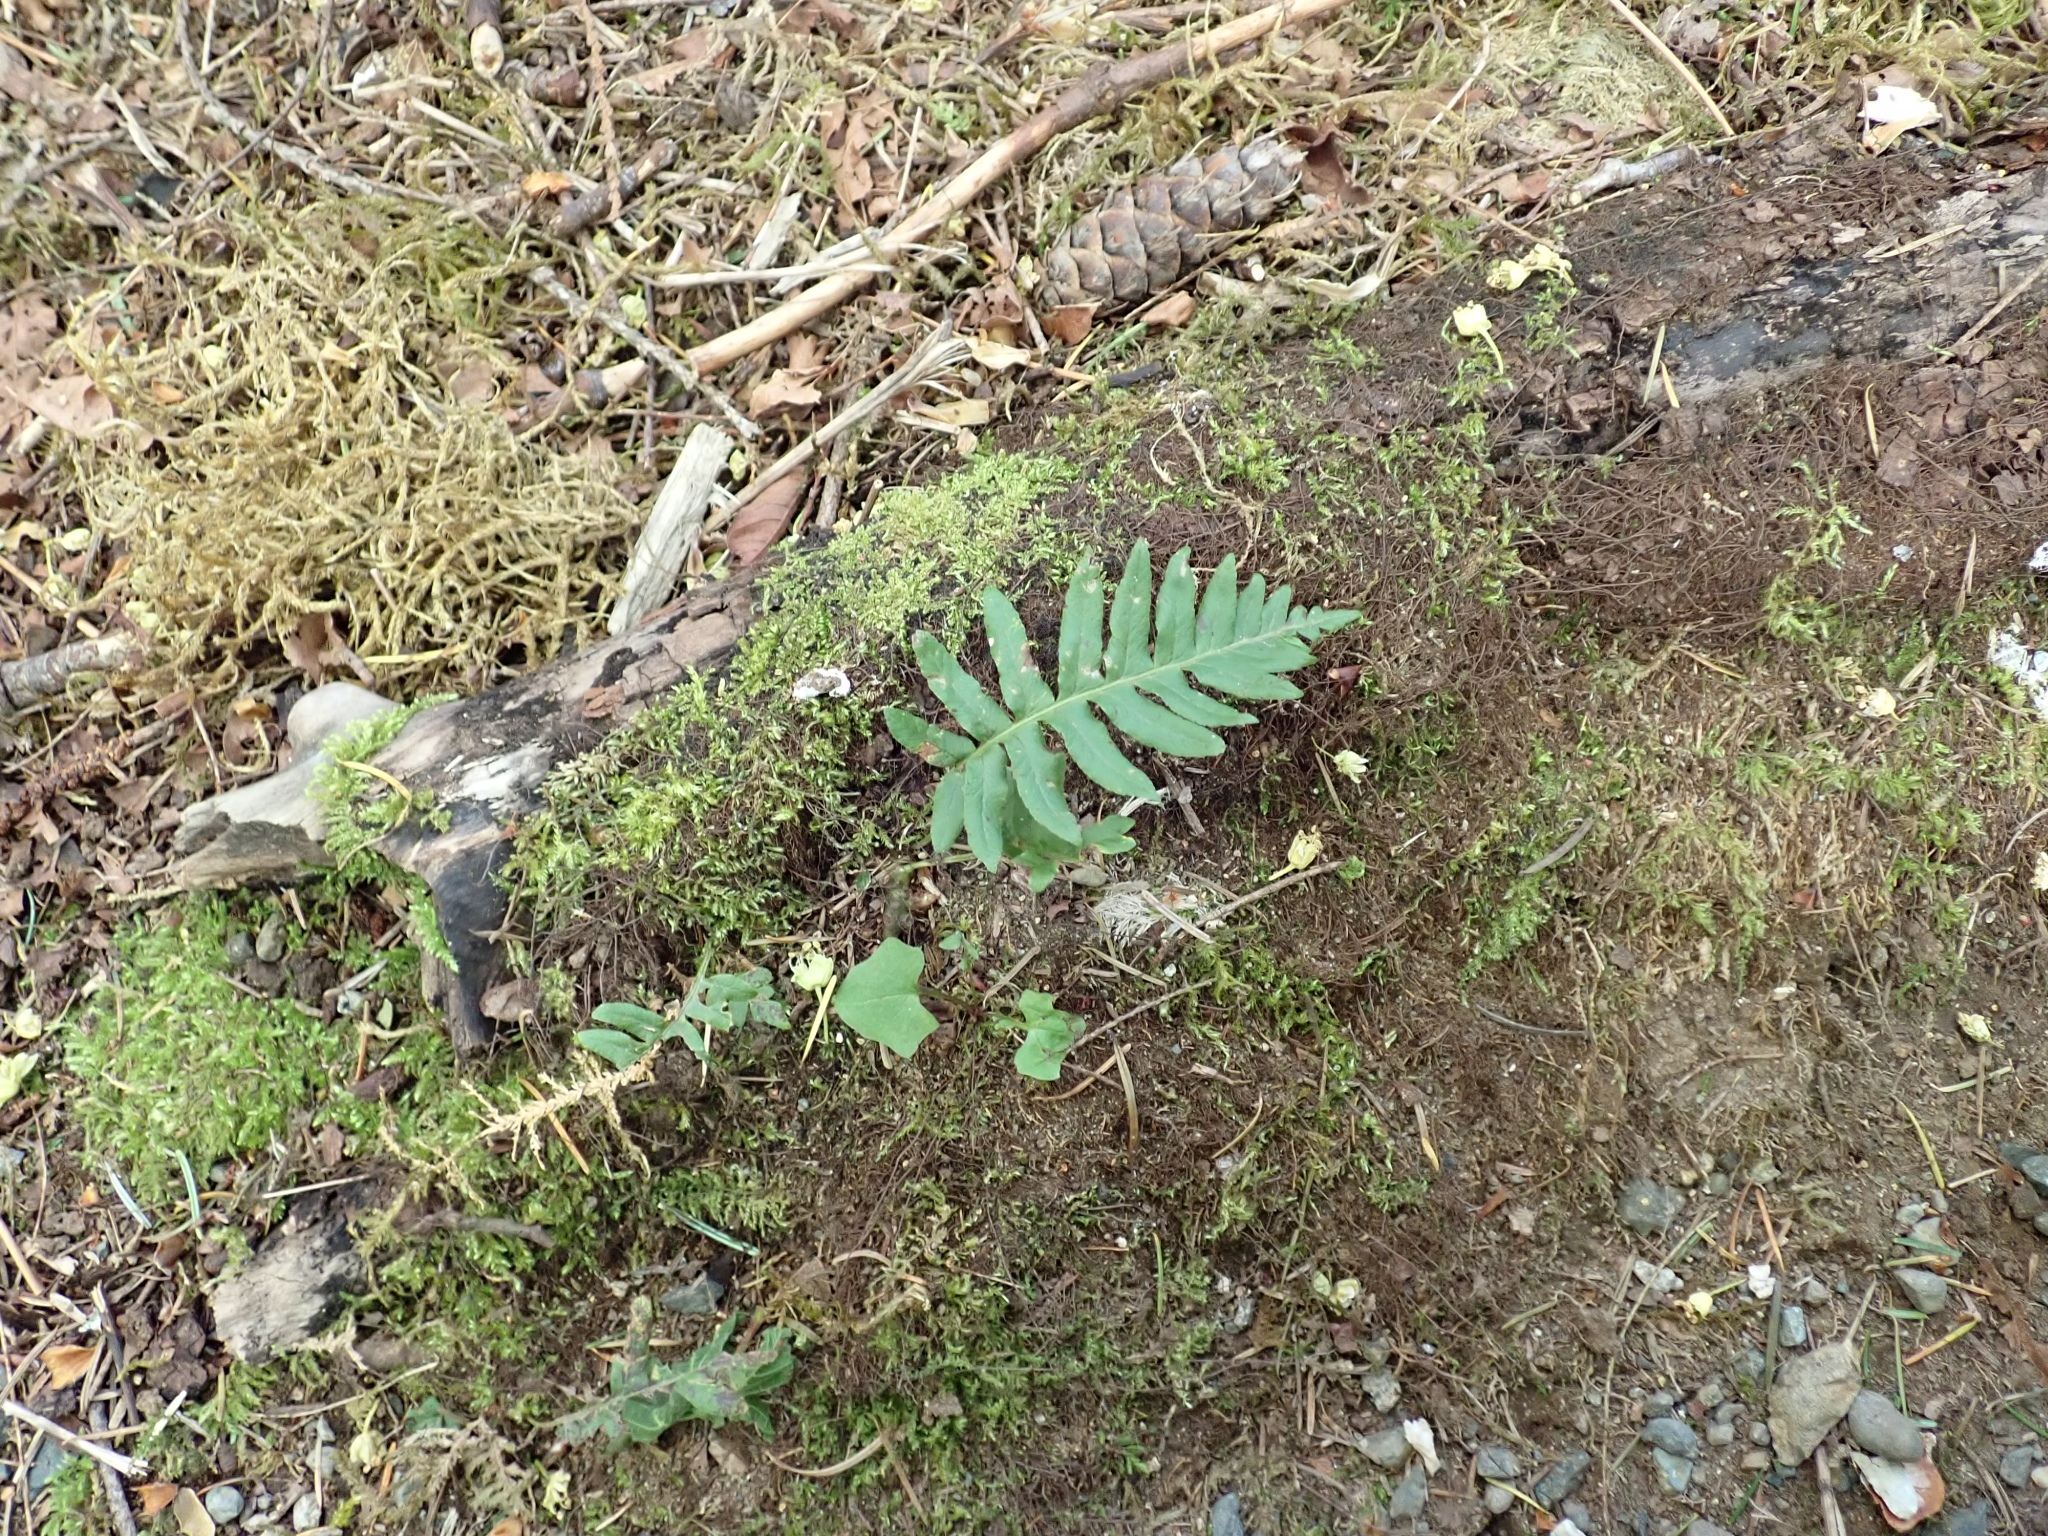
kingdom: Plantae
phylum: Tracheophyta
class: Polypodiopsida
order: Polypodiales
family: Polypodiaceae
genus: Polypodium
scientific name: Polypodium glycyrrhiza
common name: Licorice fern
